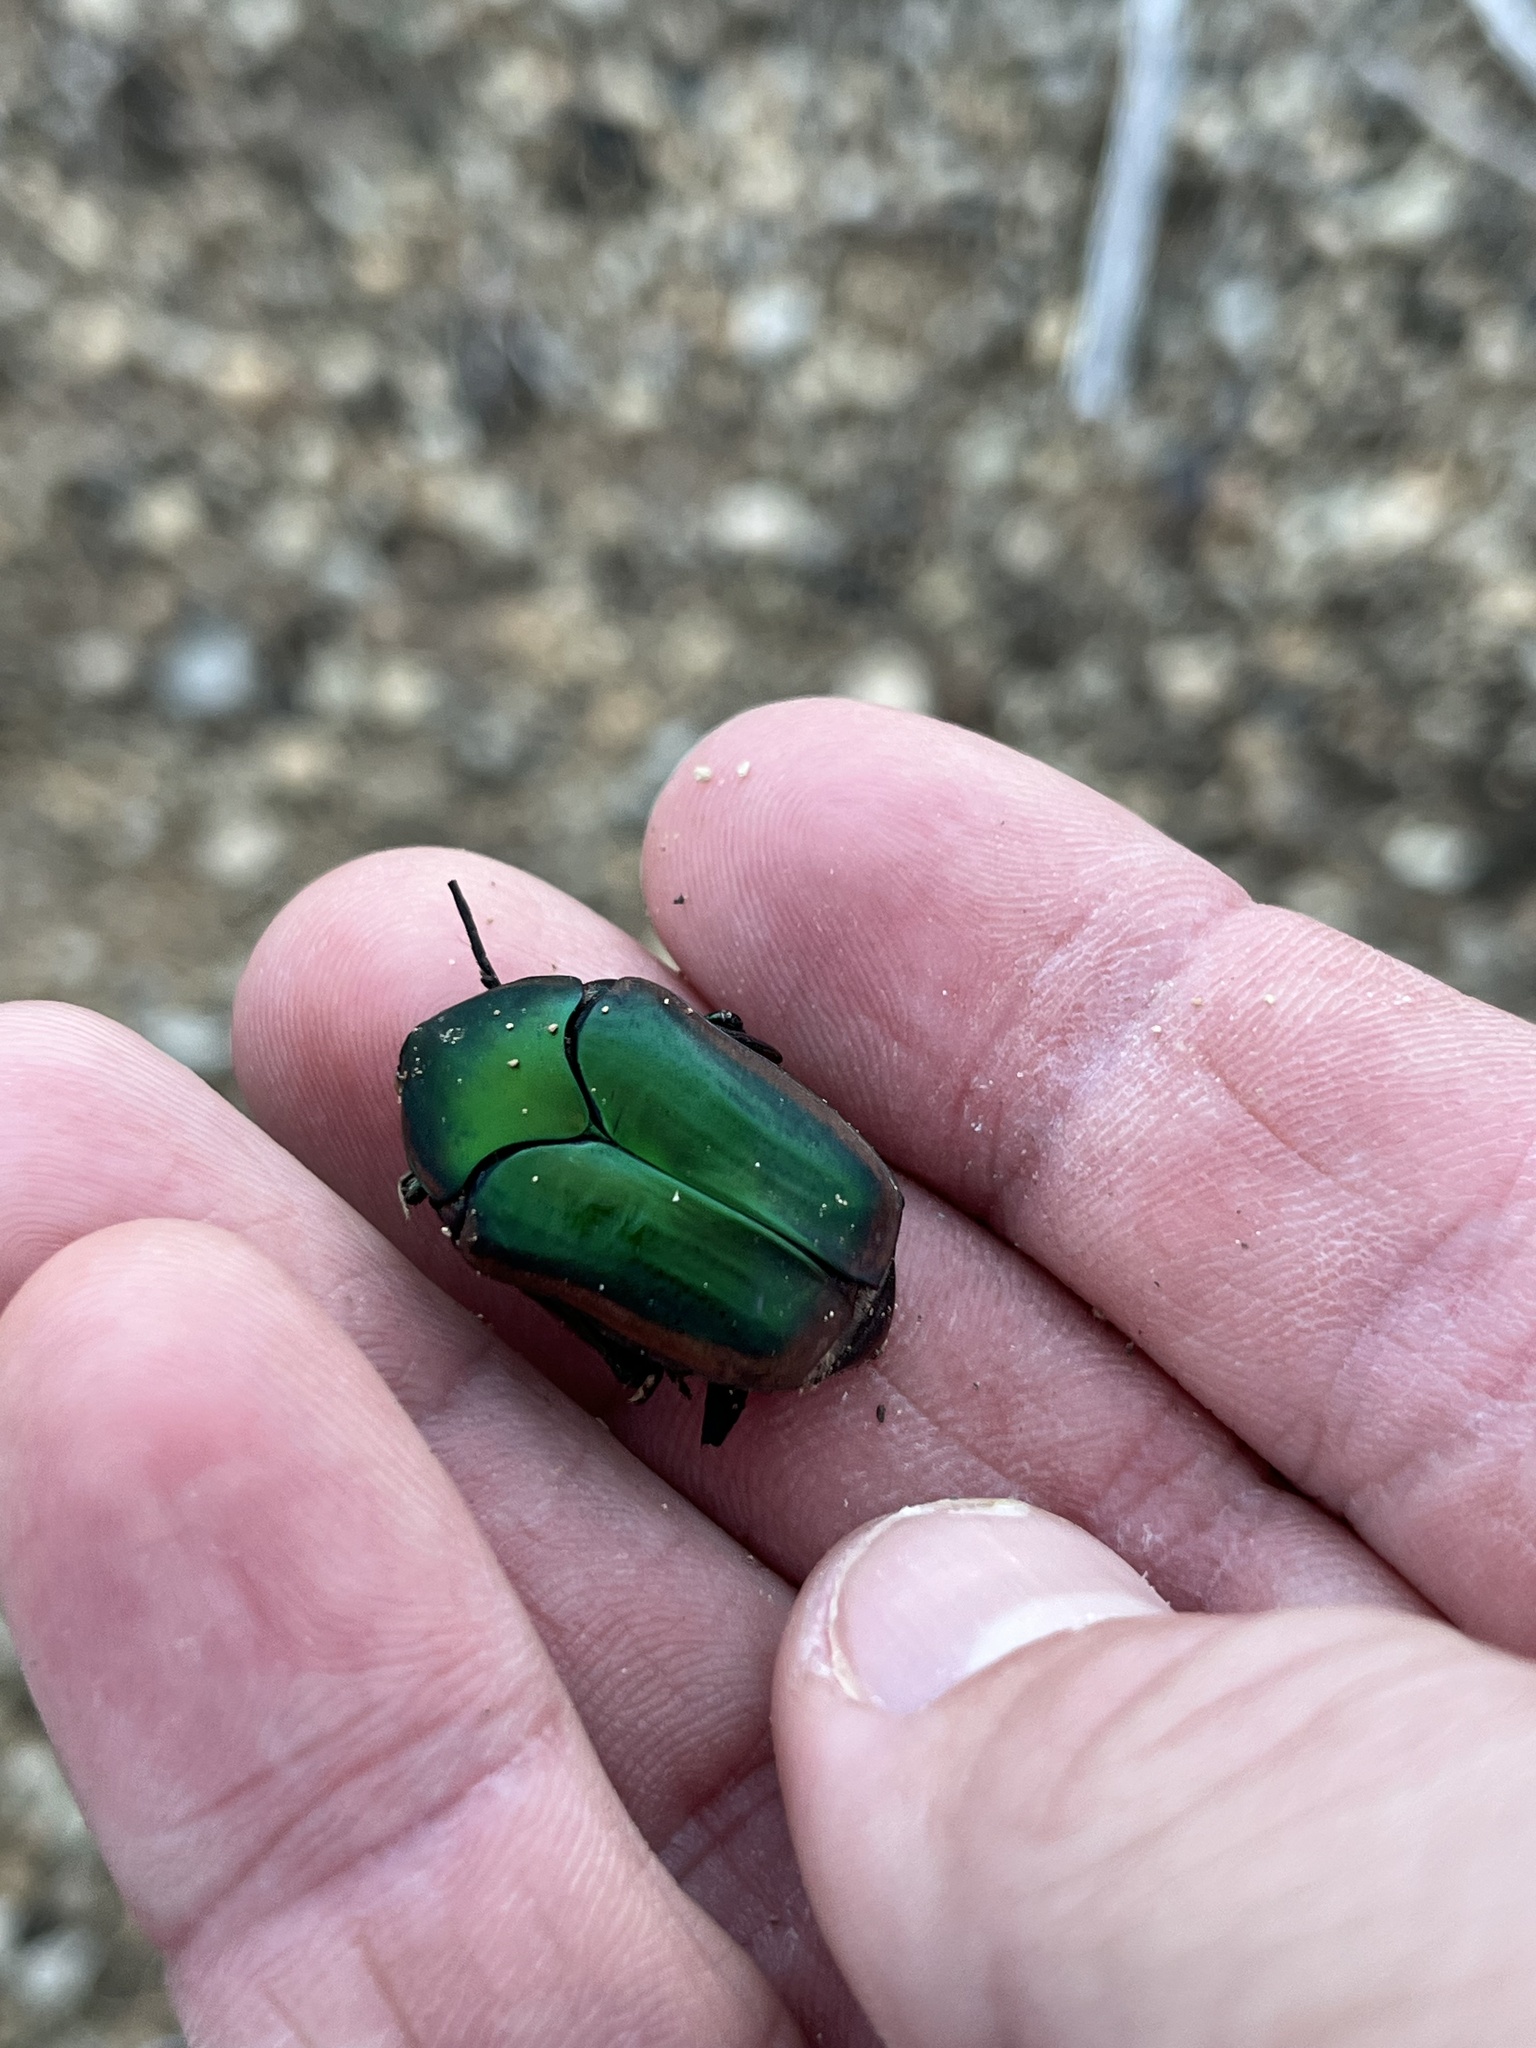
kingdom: Animalia
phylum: Arthropoda
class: Insecta
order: Coleoptera
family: Scarabaeidae
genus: Cotinis
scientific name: Cotinis nitida
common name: Common green june beetle
